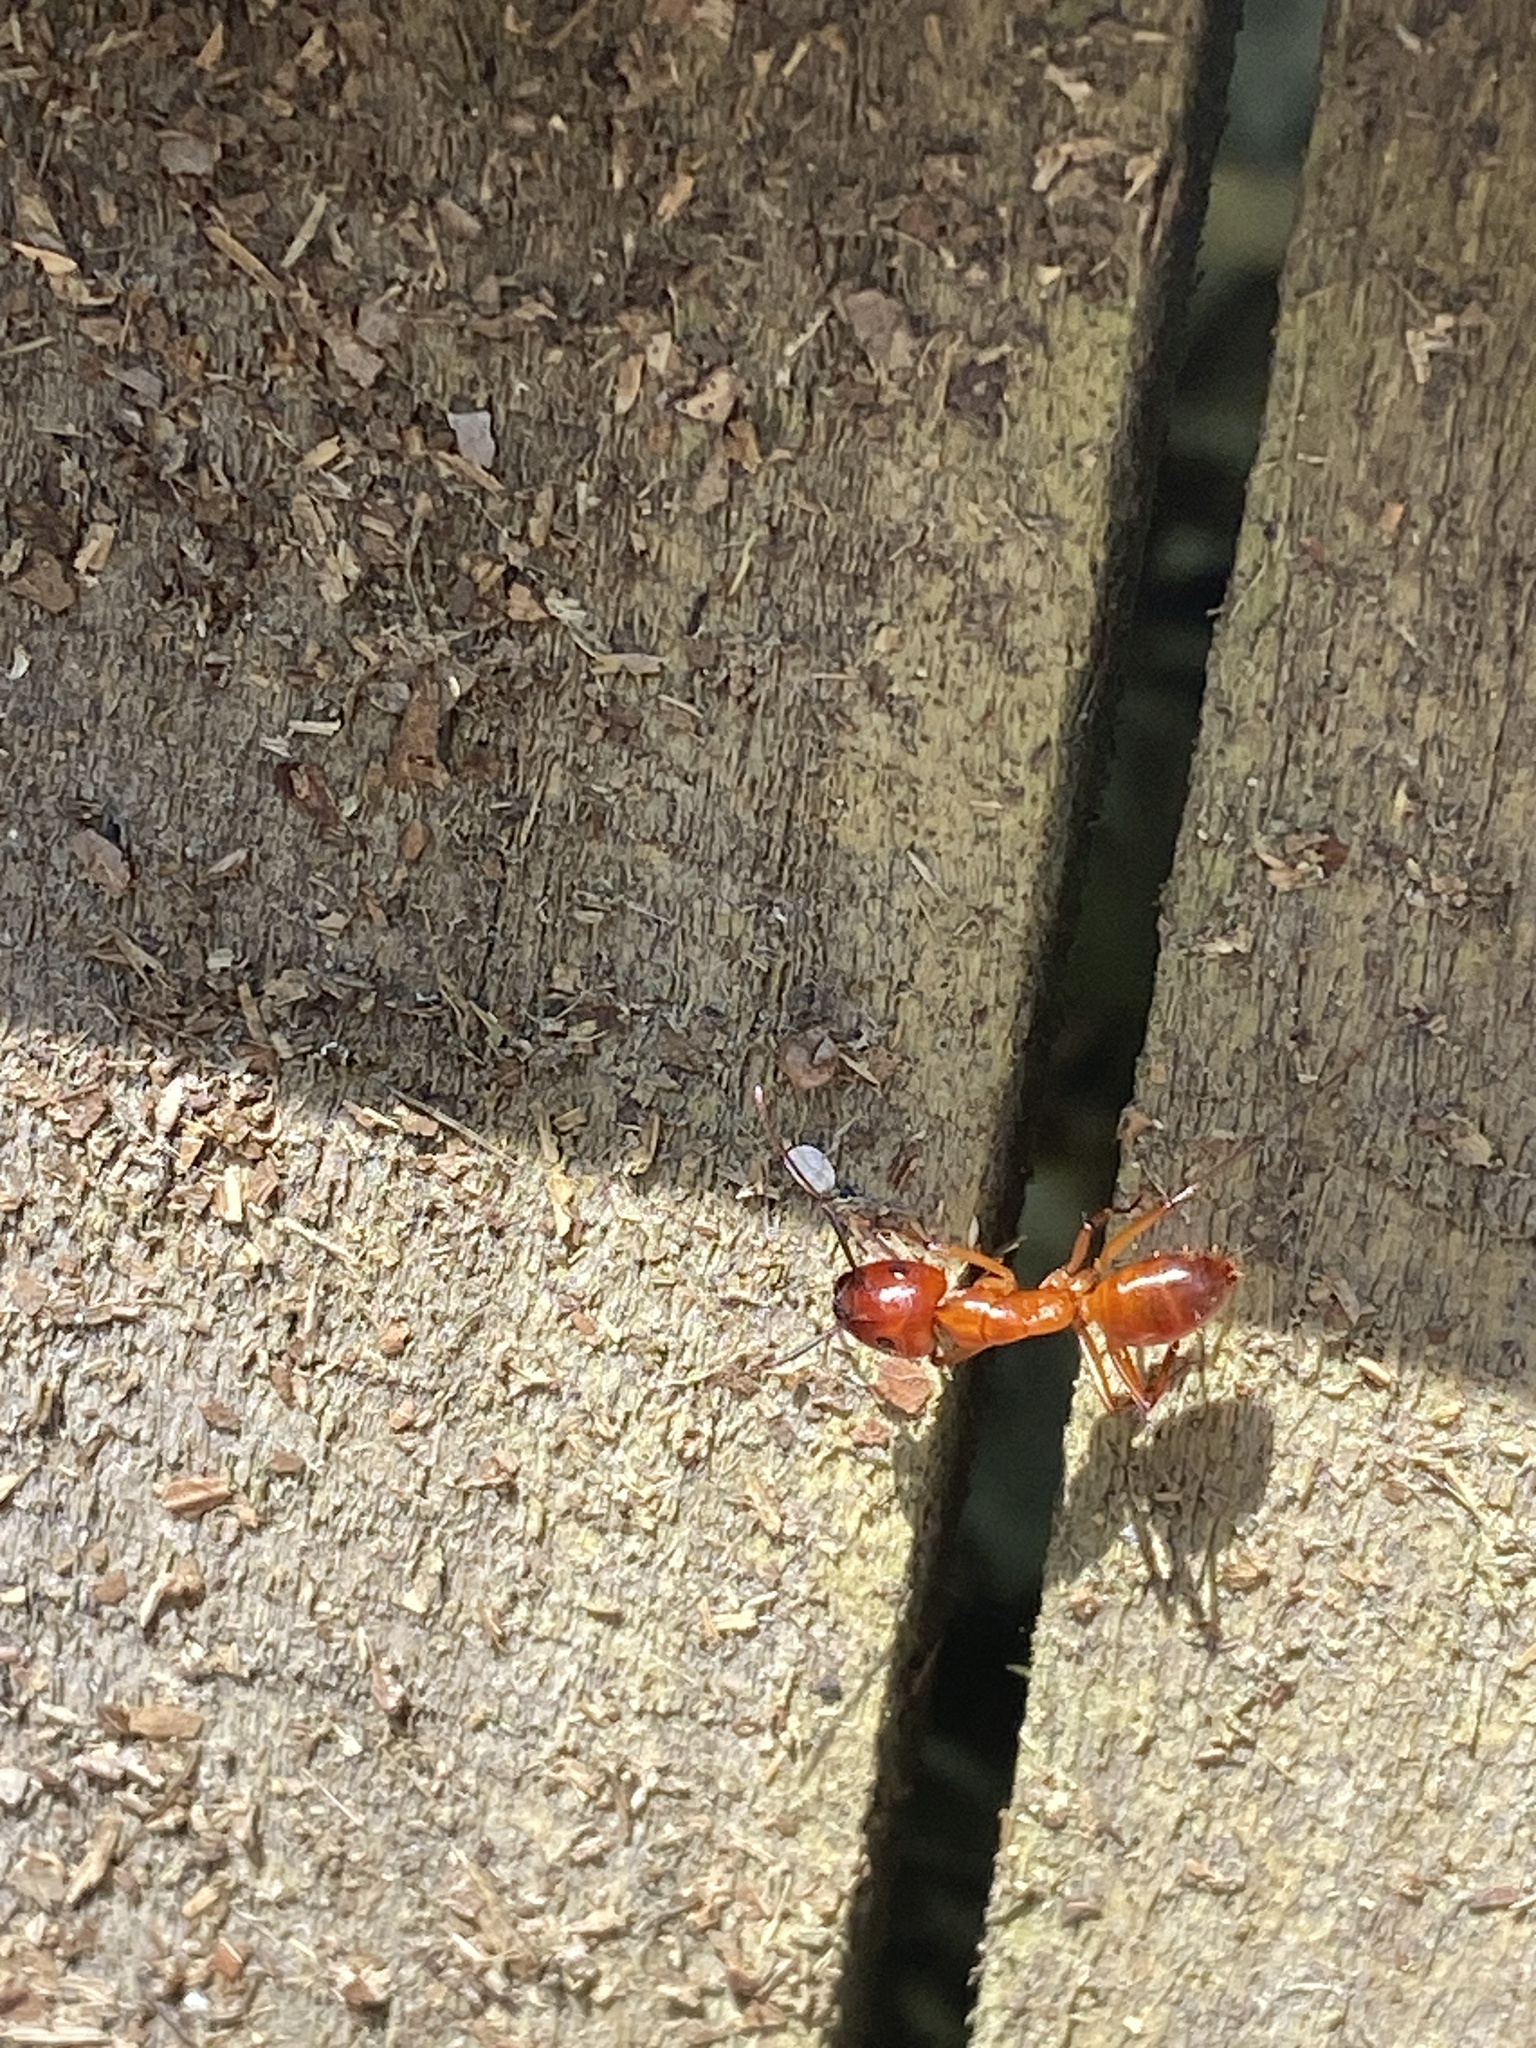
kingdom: Animalia
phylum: Arthropoda
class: Insecta
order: Hymenoptera
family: Formicidae
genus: Camponotus
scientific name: Camponotus castaneus
